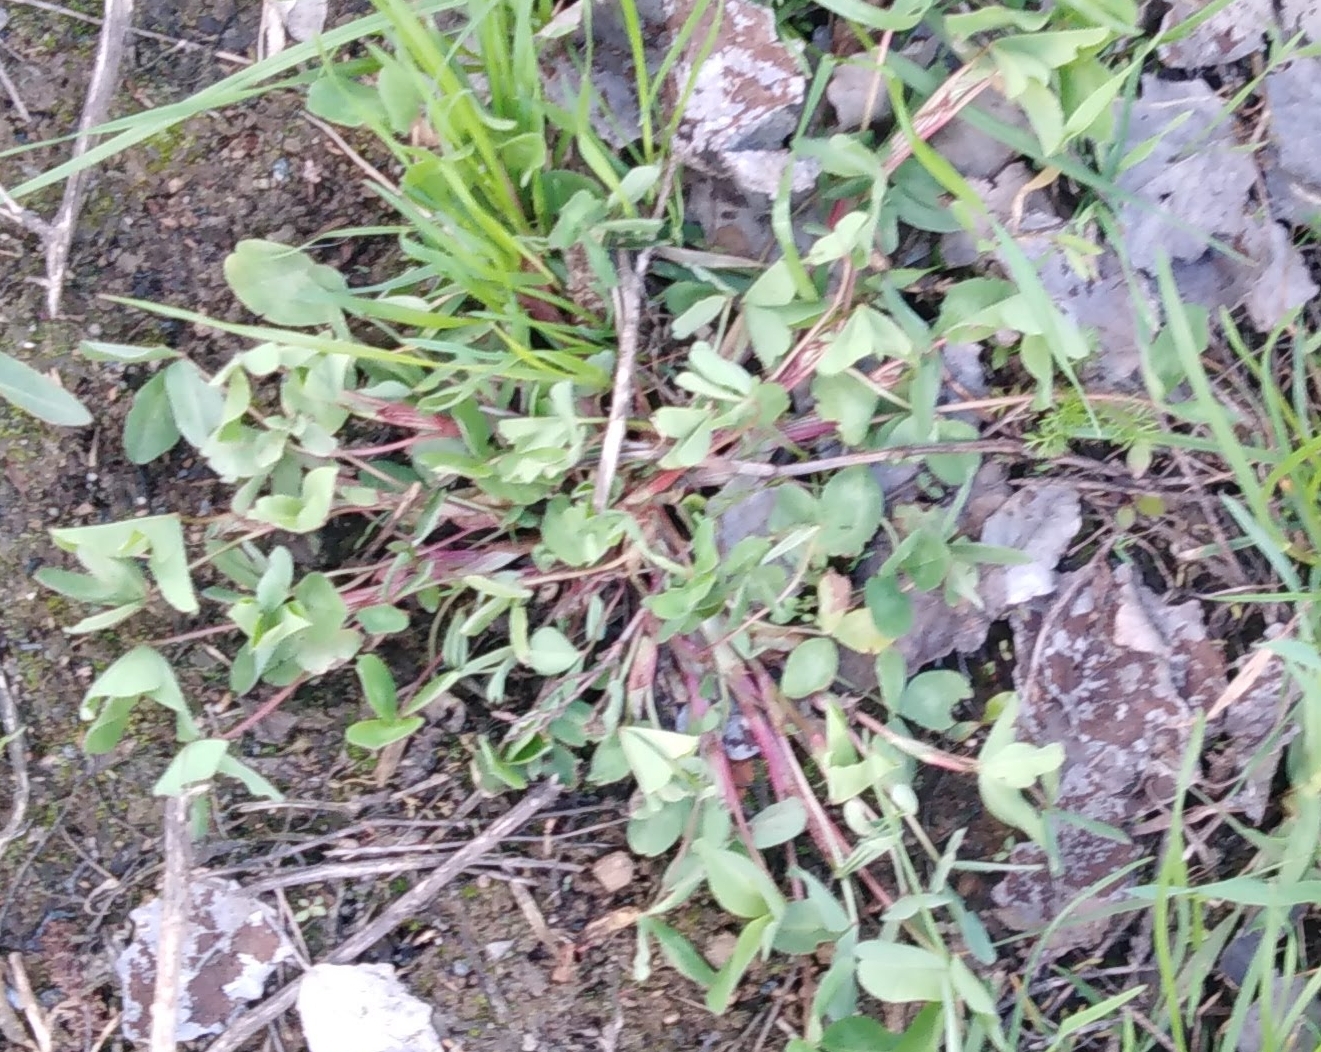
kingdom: Plantae
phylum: Tracheophyta
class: Magnoliopsida
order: Fabales
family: Fabaceae
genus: Trifolium
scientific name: Trifolium pratense
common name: Red clover
